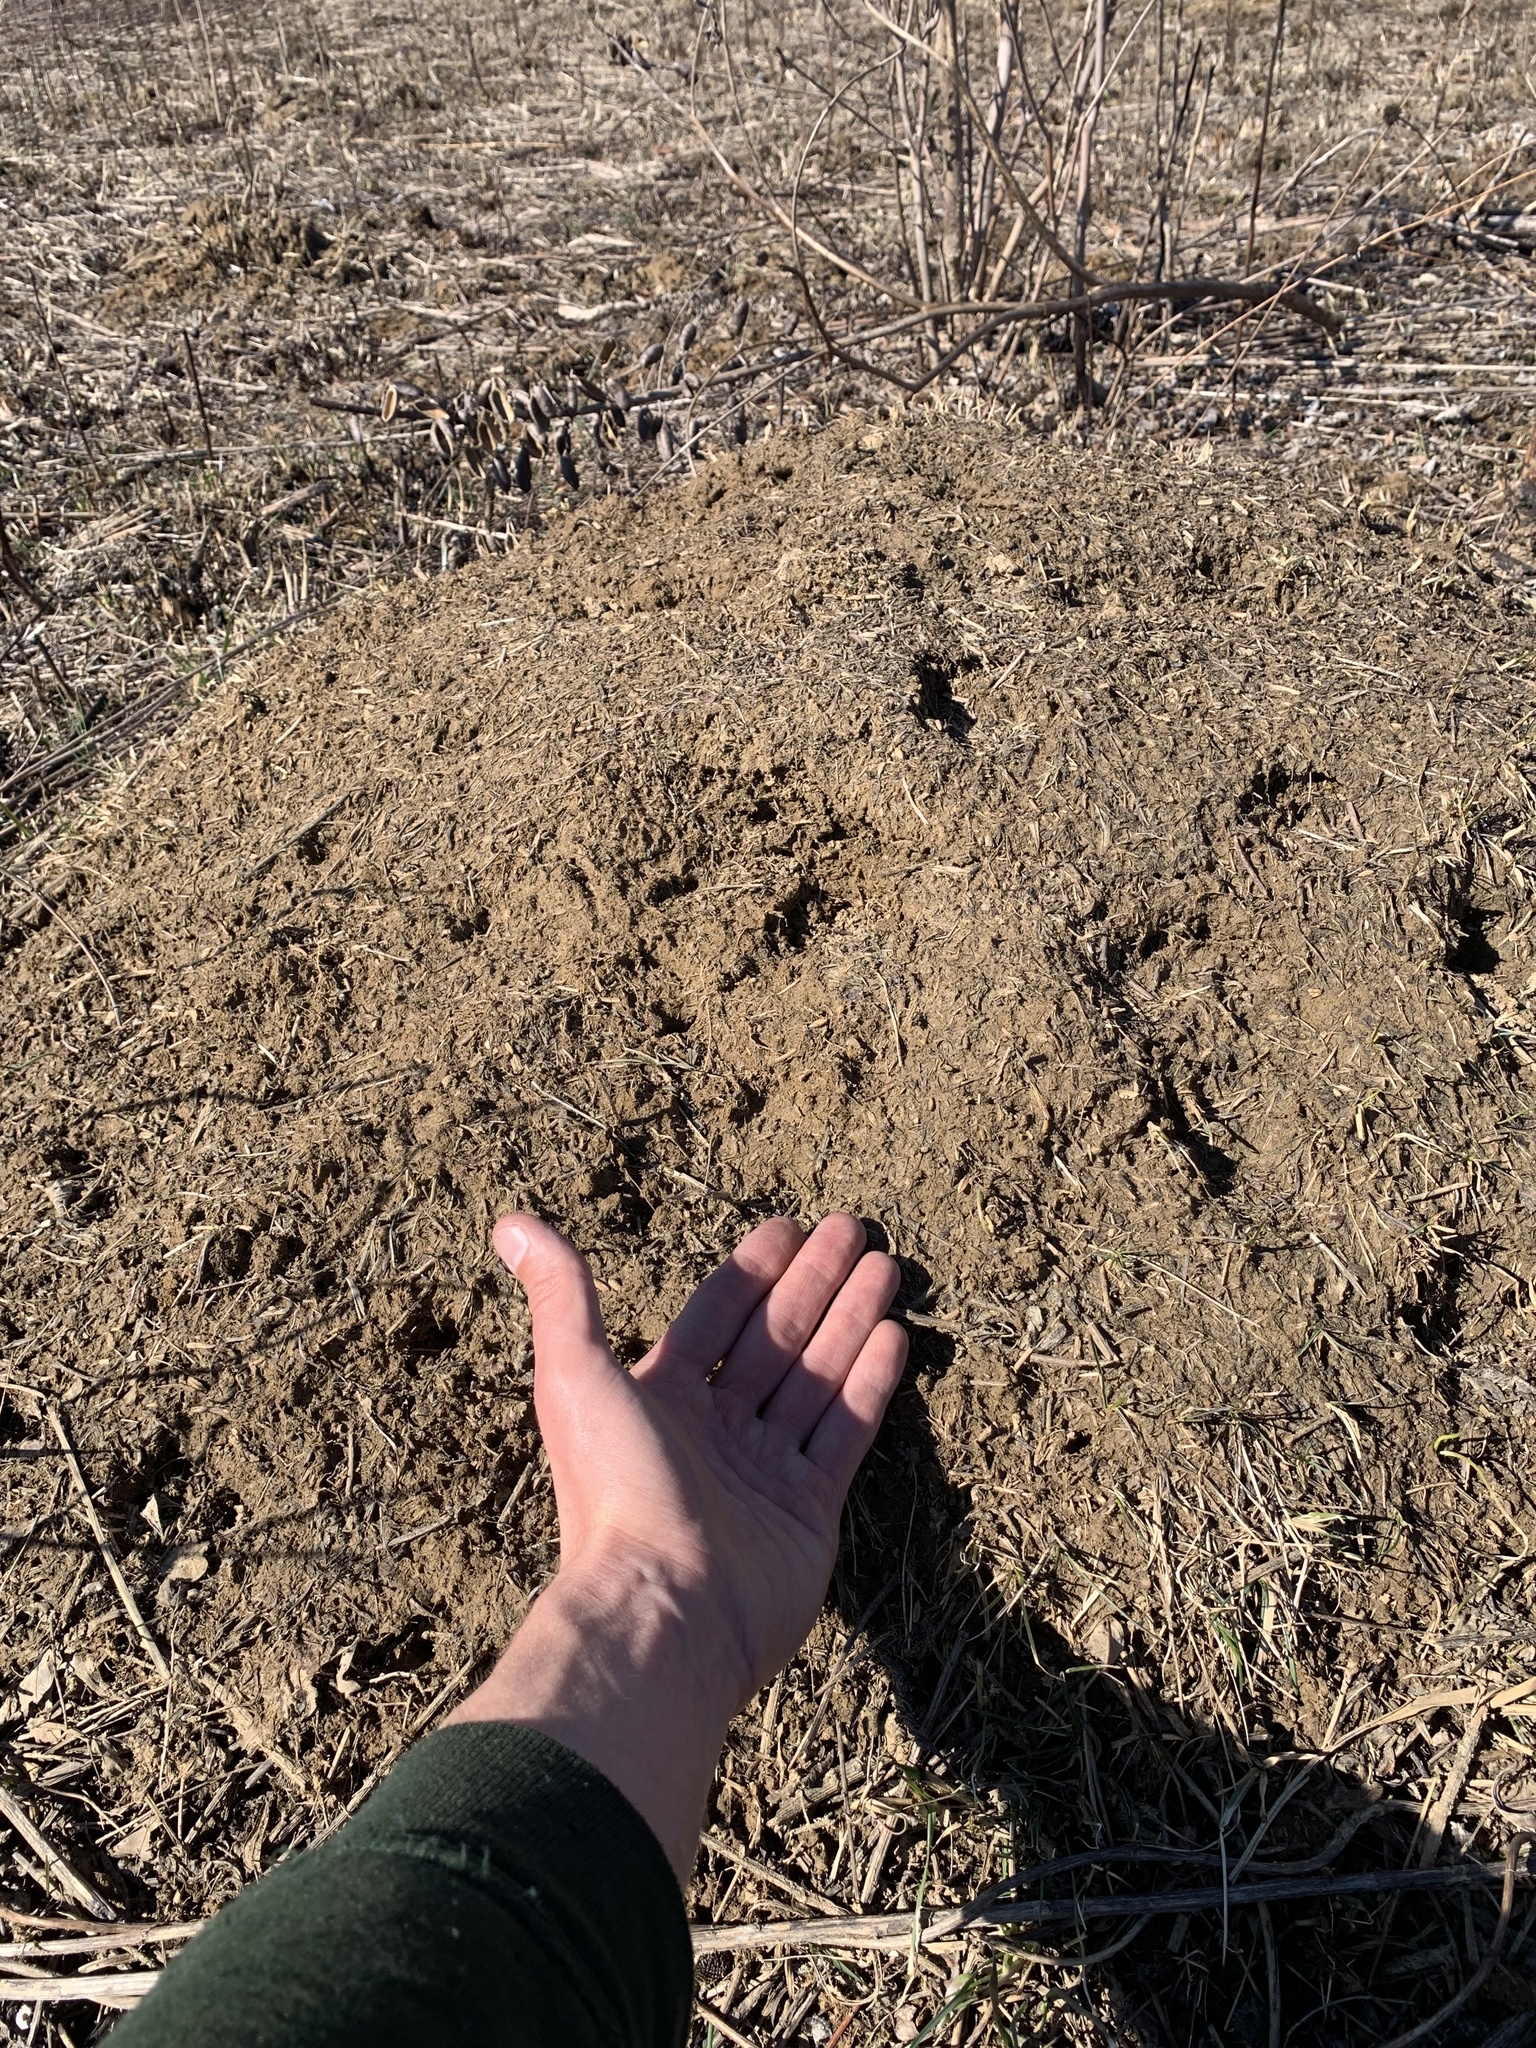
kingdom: Animalia
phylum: Arthropoda
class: Insecta
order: Hymenoptera
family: Formicidae
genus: Formica
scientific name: Formica exsectoides
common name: Allegheny mound ant
